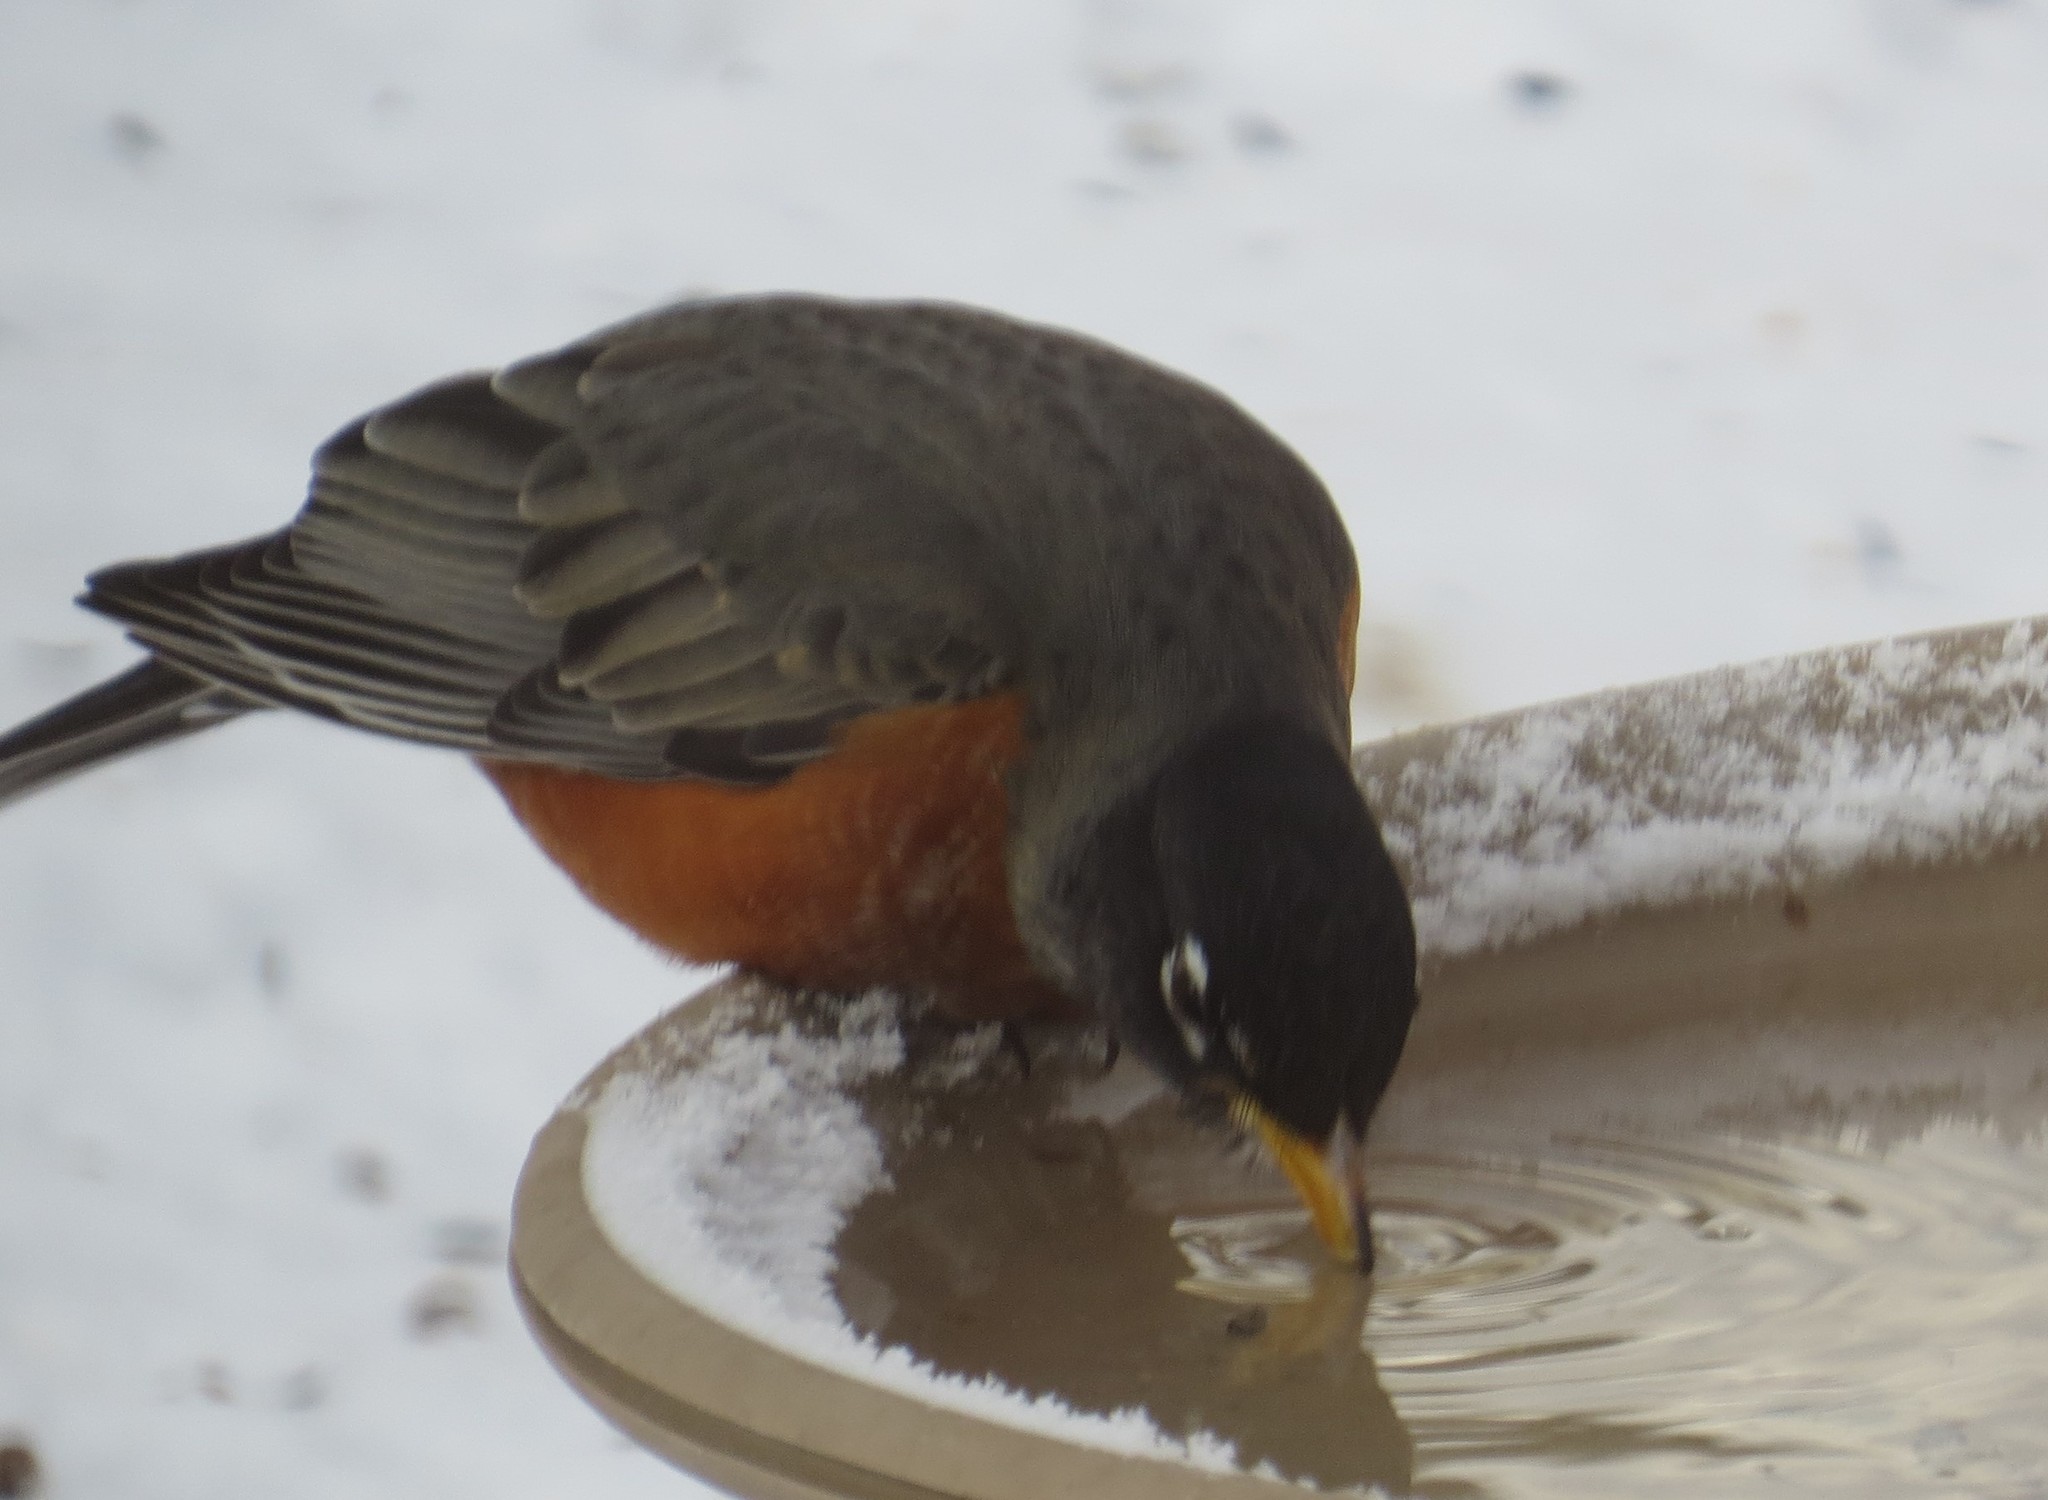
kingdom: Animalia
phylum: Chordata
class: Aves
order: Passeriformes
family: Turdidae
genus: Turdus
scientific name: Turdus migratorius
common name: American robin
